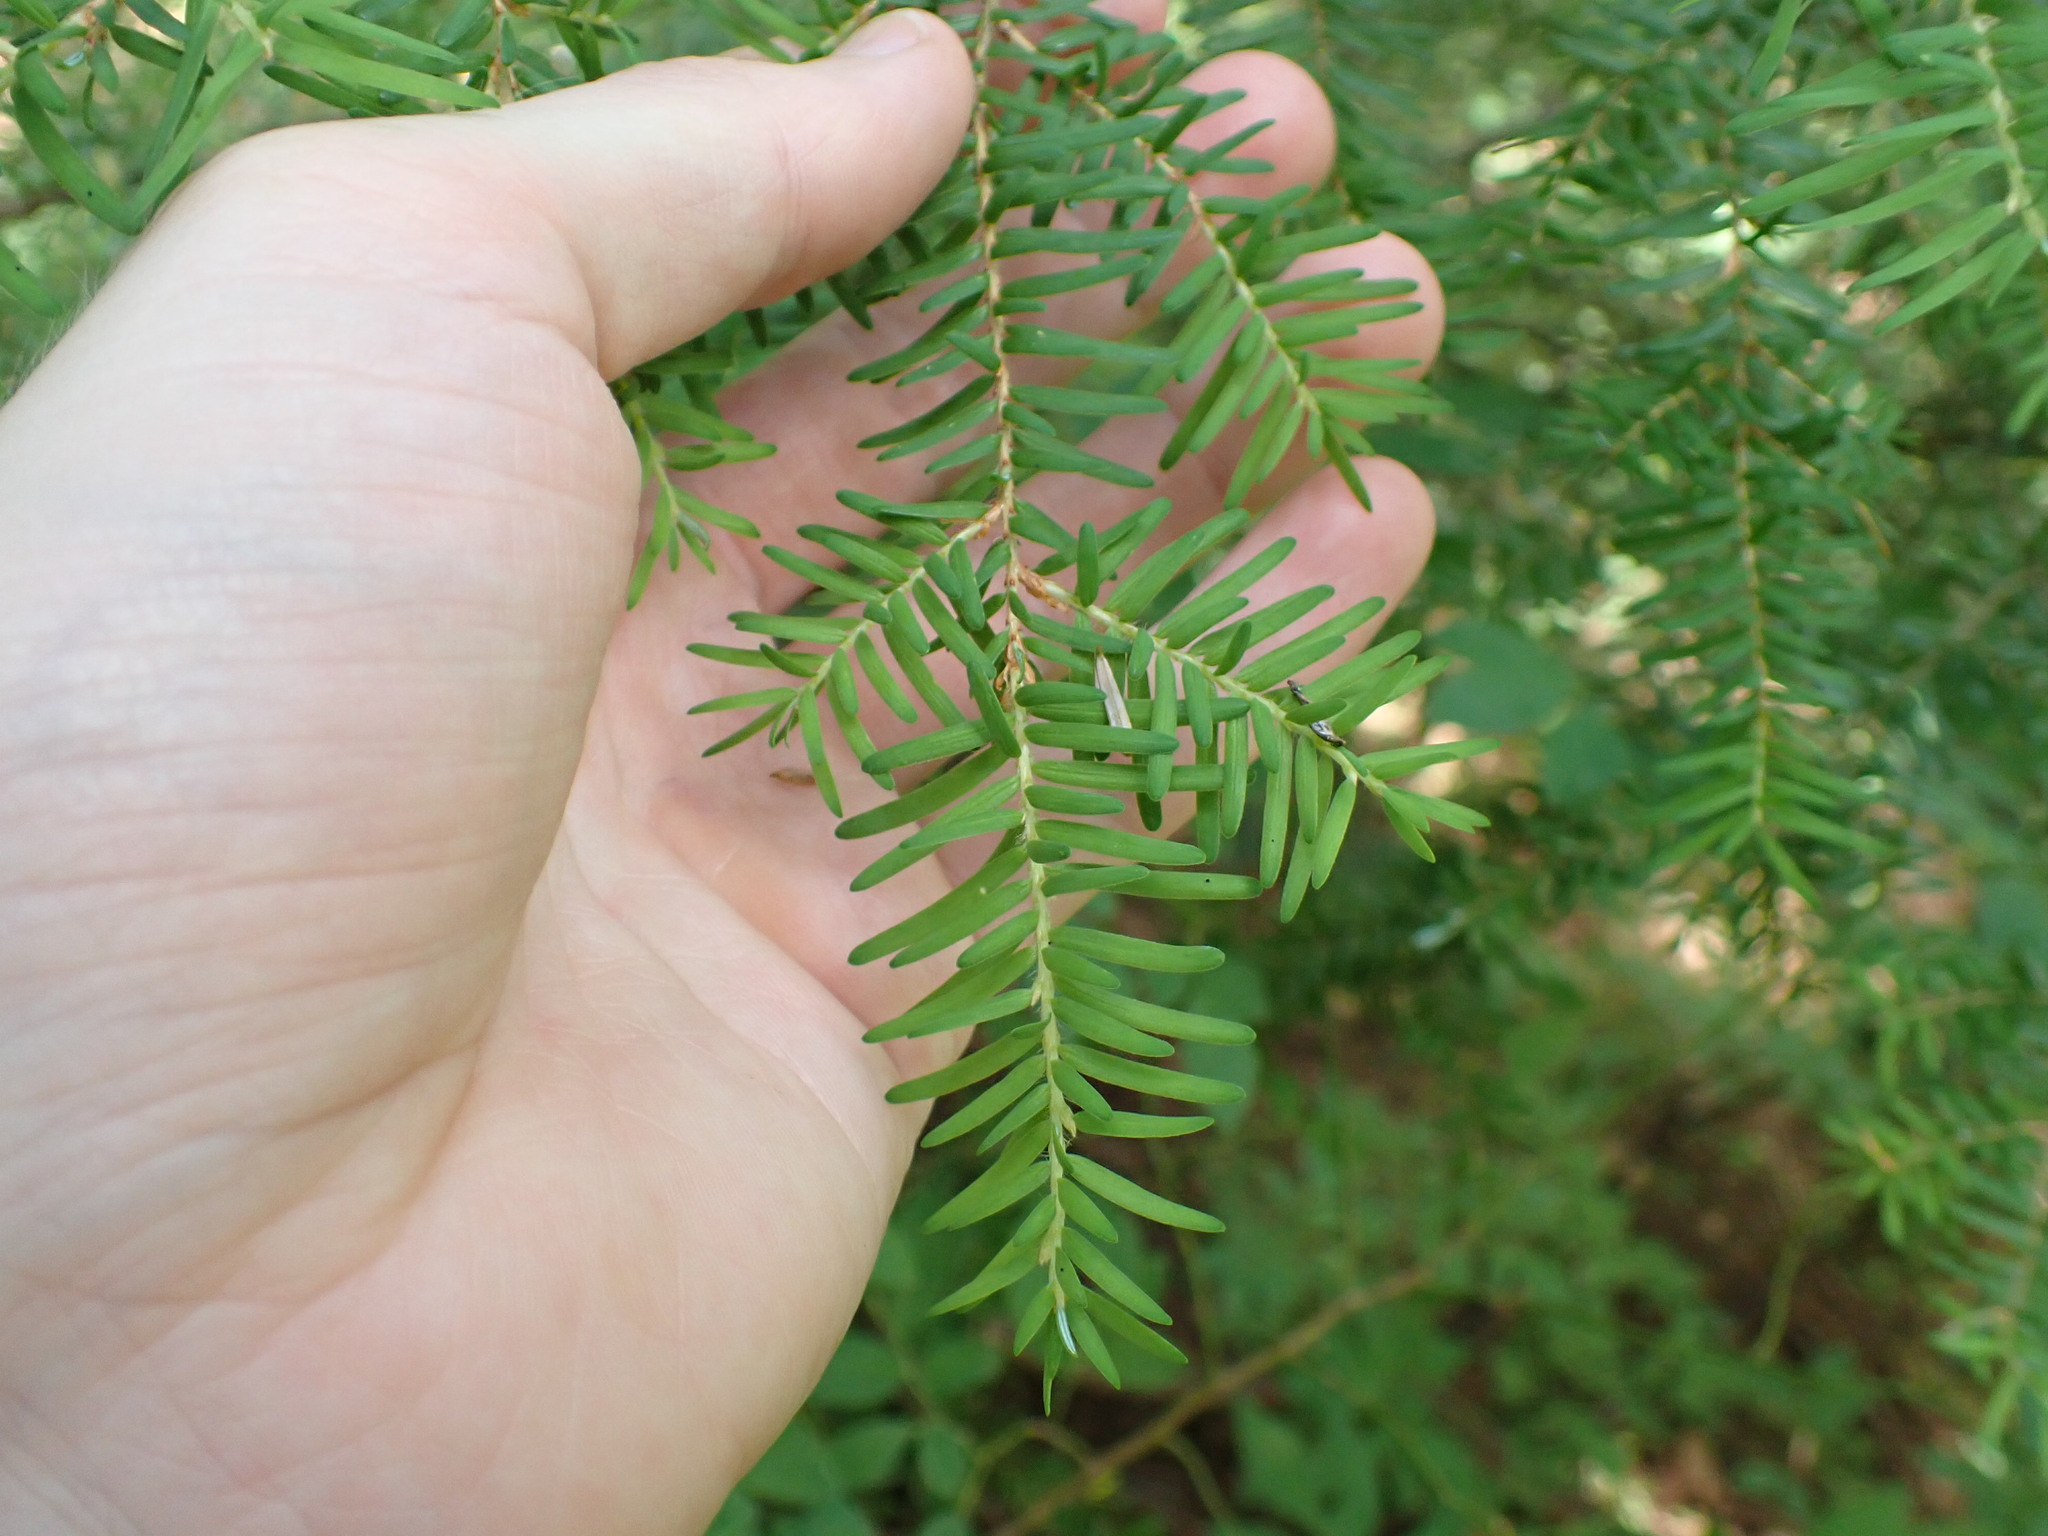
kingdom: Plantae
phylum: Tracheophyta
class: Pinopsida
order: Pinales
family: Pinaceae
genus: Tsuga
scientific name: Tsuga heterophylla
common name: Western hemlock
